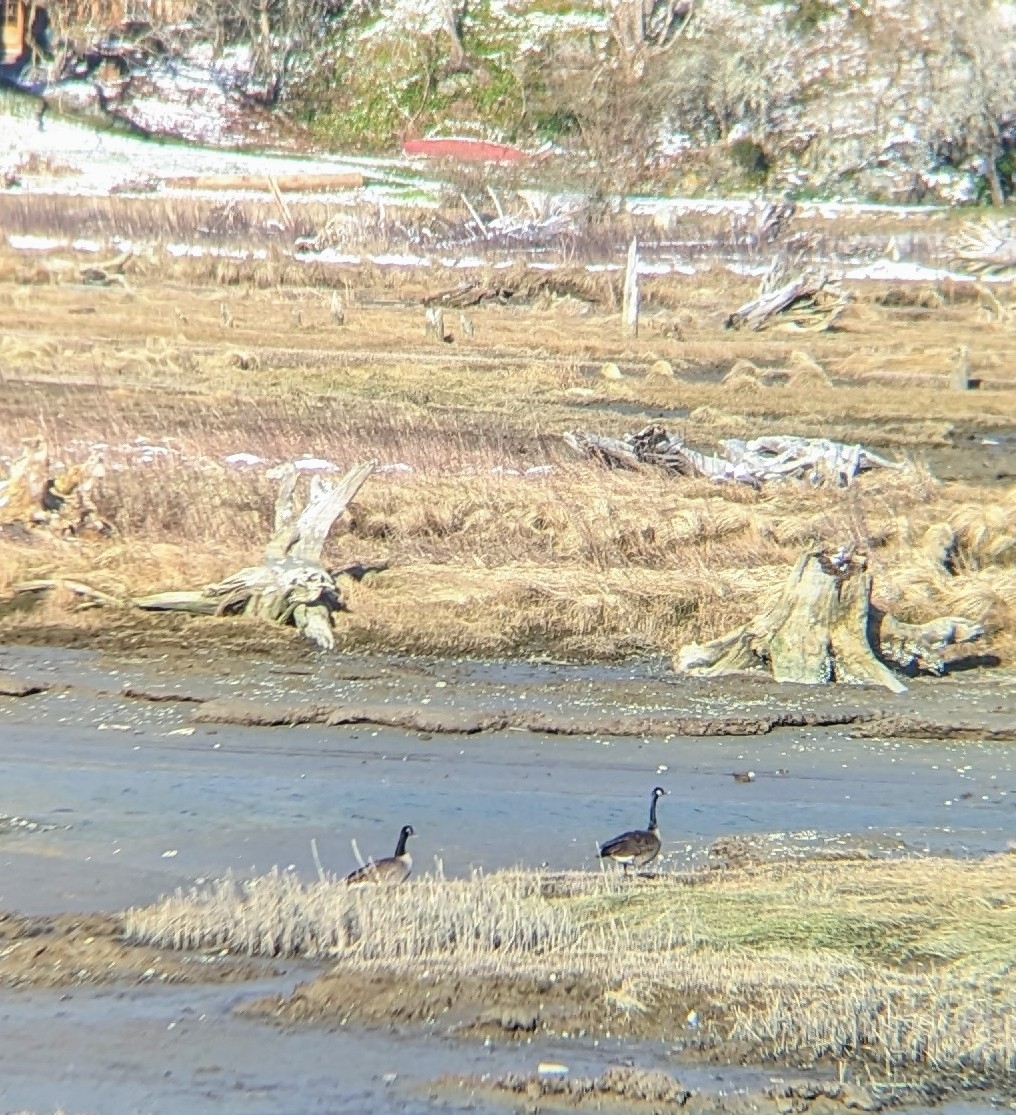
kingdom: Animalia
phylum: Chordata
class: Aves
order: Anseriformes
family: Anatidae
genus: Branta
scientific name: Branta canadensis
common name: Canada goose
